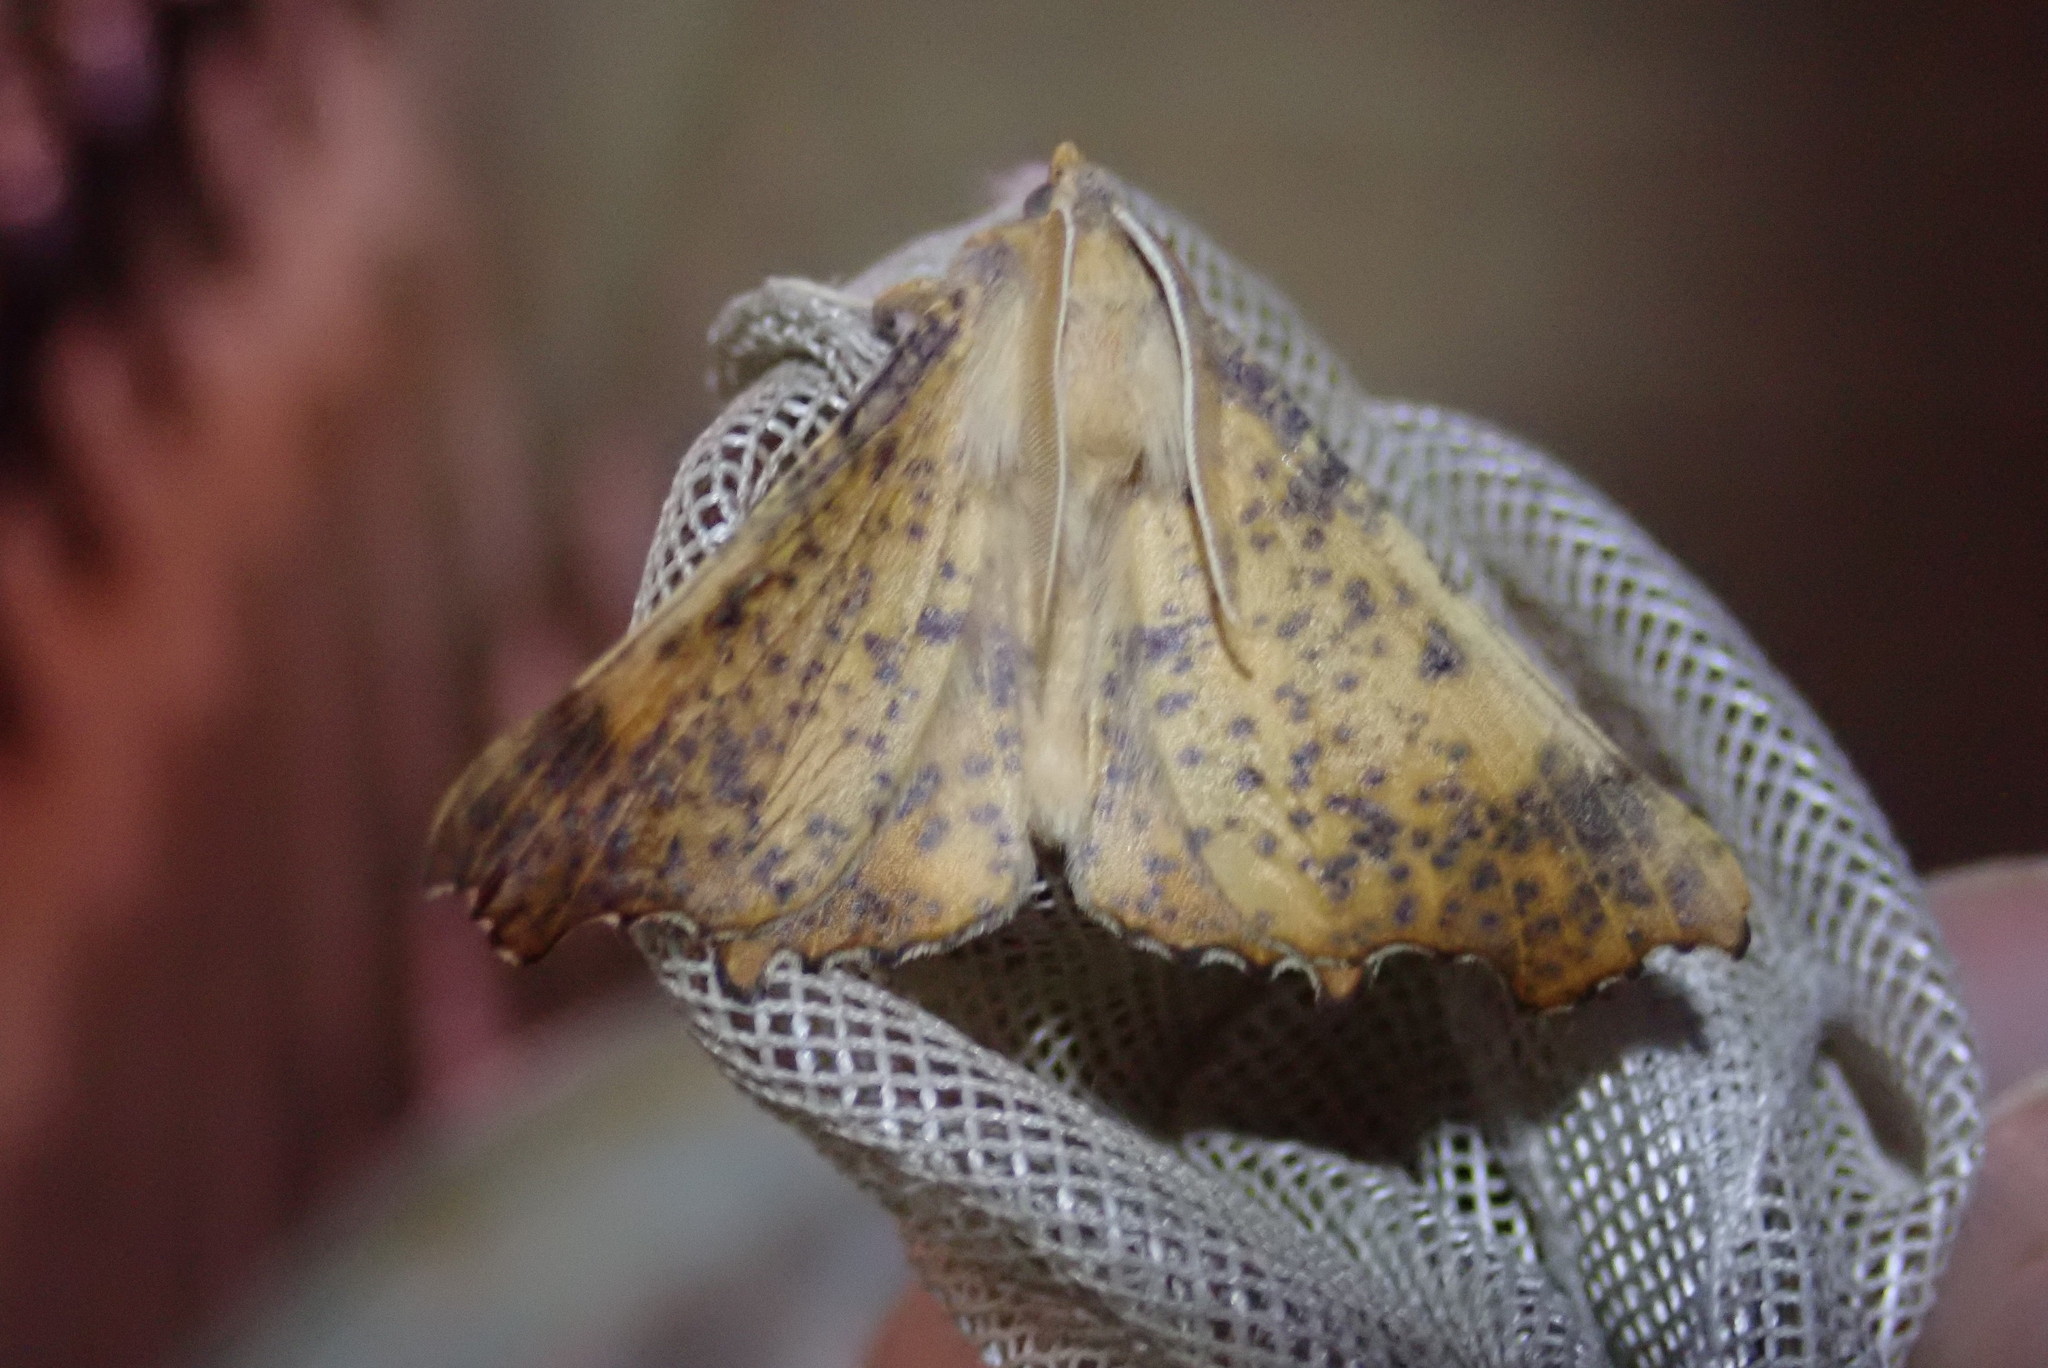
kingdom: Animalia
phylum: Arthropoda
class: Insecta
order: Lepidoptera
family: Geometridae
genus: Ennomos
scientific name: Ennomos magnaria
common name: Maple spanworm
